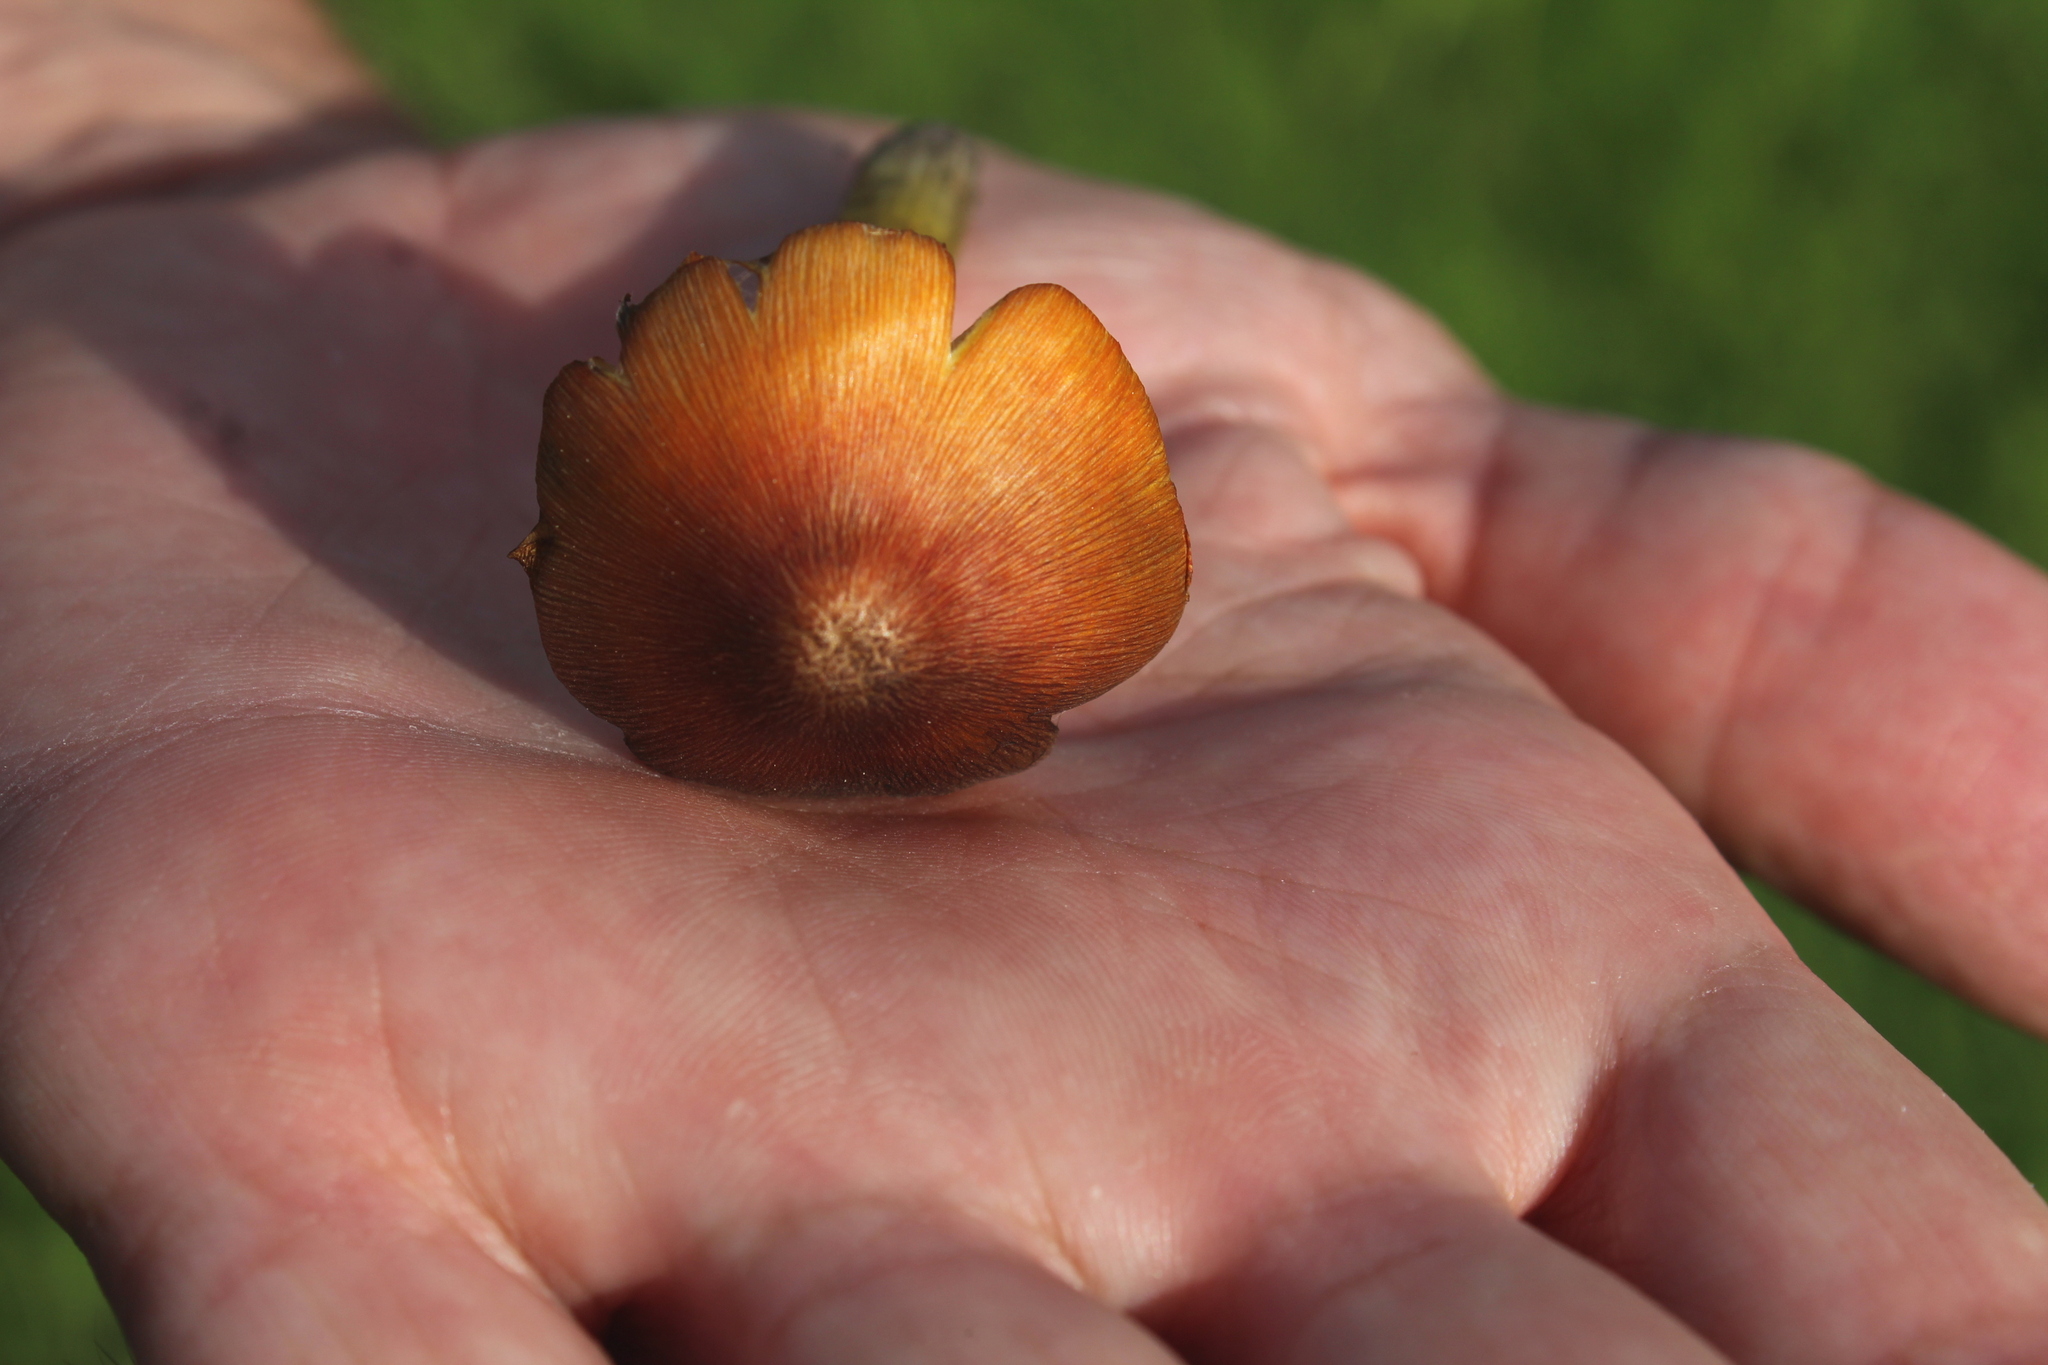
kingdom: Fungi
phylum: Basidiomycota
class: Agaricomycetes
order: Agaricales
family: Hygrophoraceae
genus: Hygrocybe
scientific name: Hygrocybe conica
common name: Blackening wax-cap
